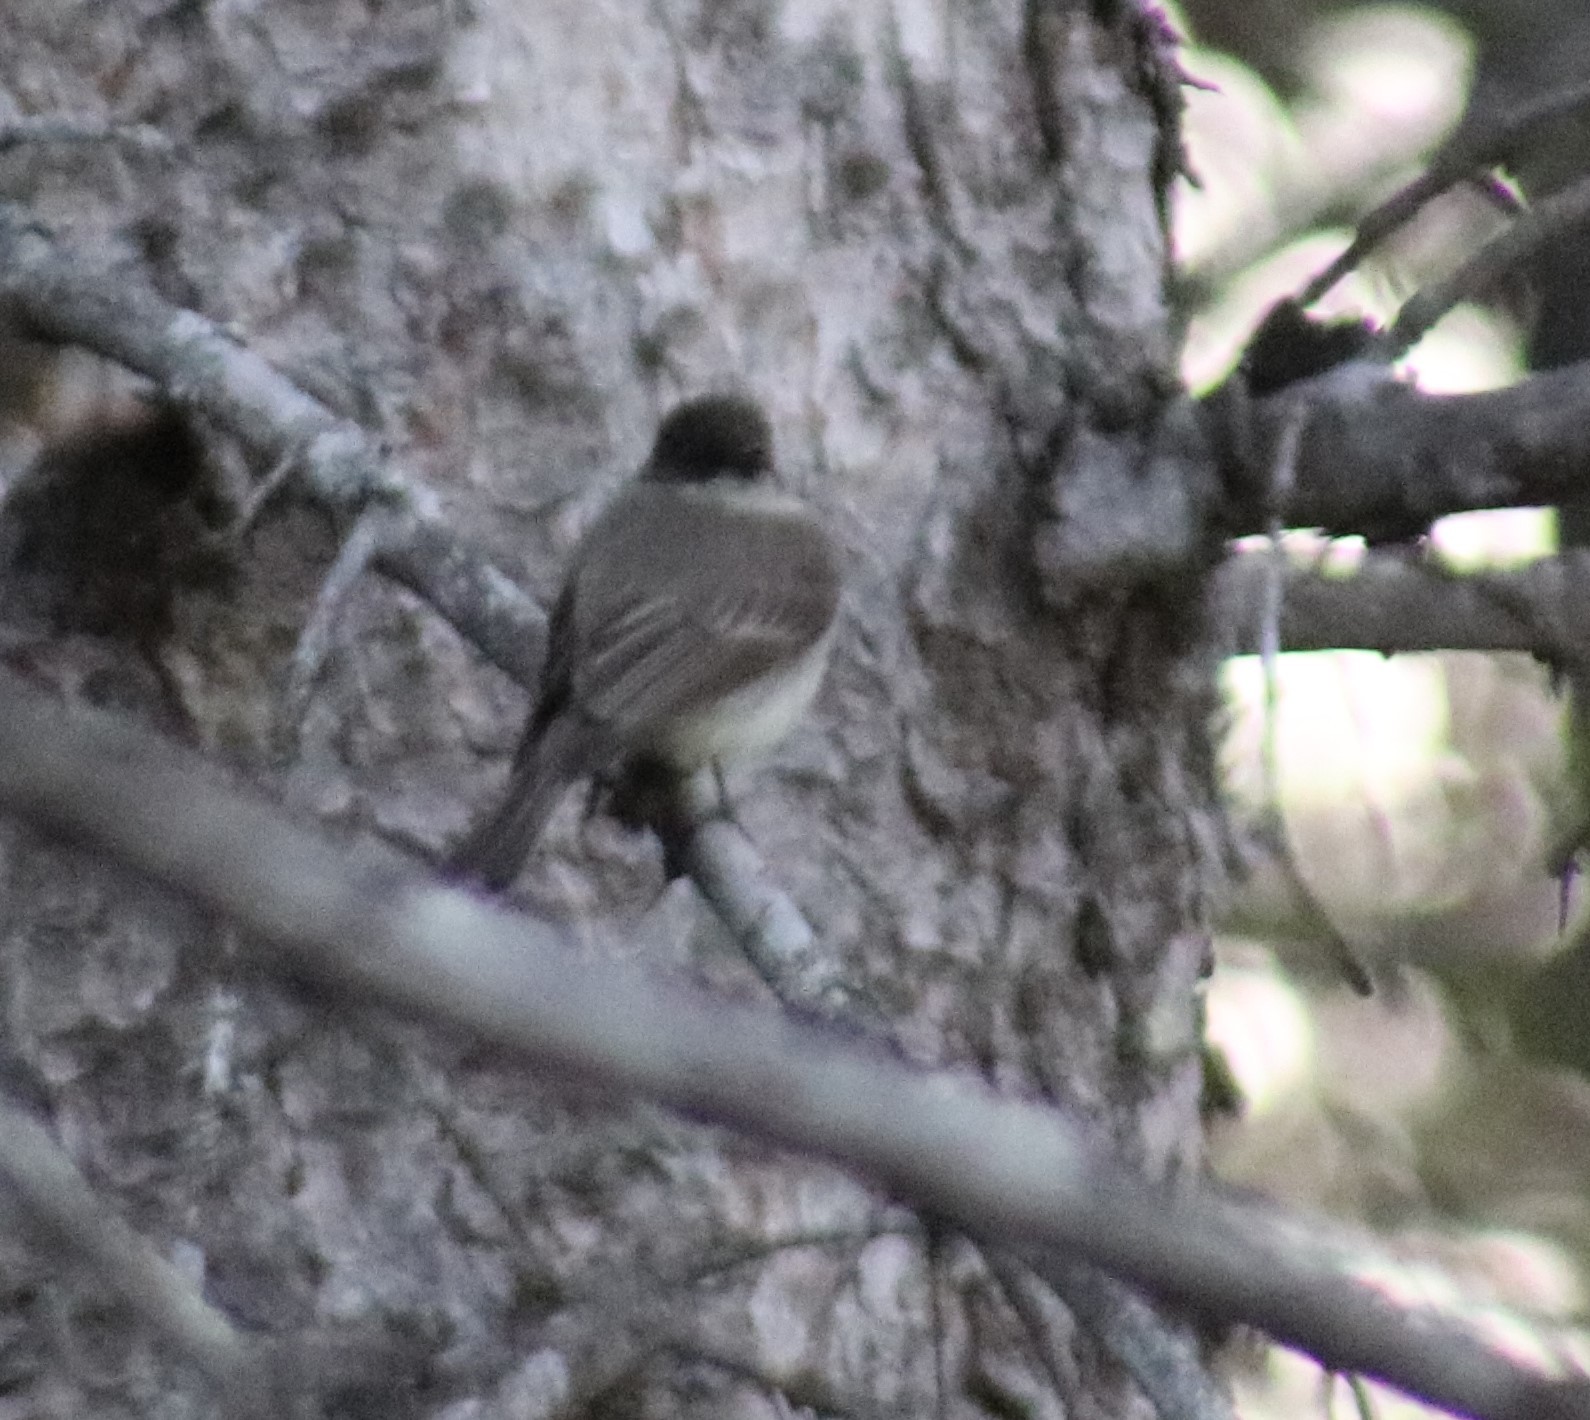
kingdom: Animalia
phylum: Chordata
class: Aves
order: Passeriformes
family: Tyrannidae
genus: Sayornis
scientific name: Sayornis phoebe
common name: Eastern phoebe
